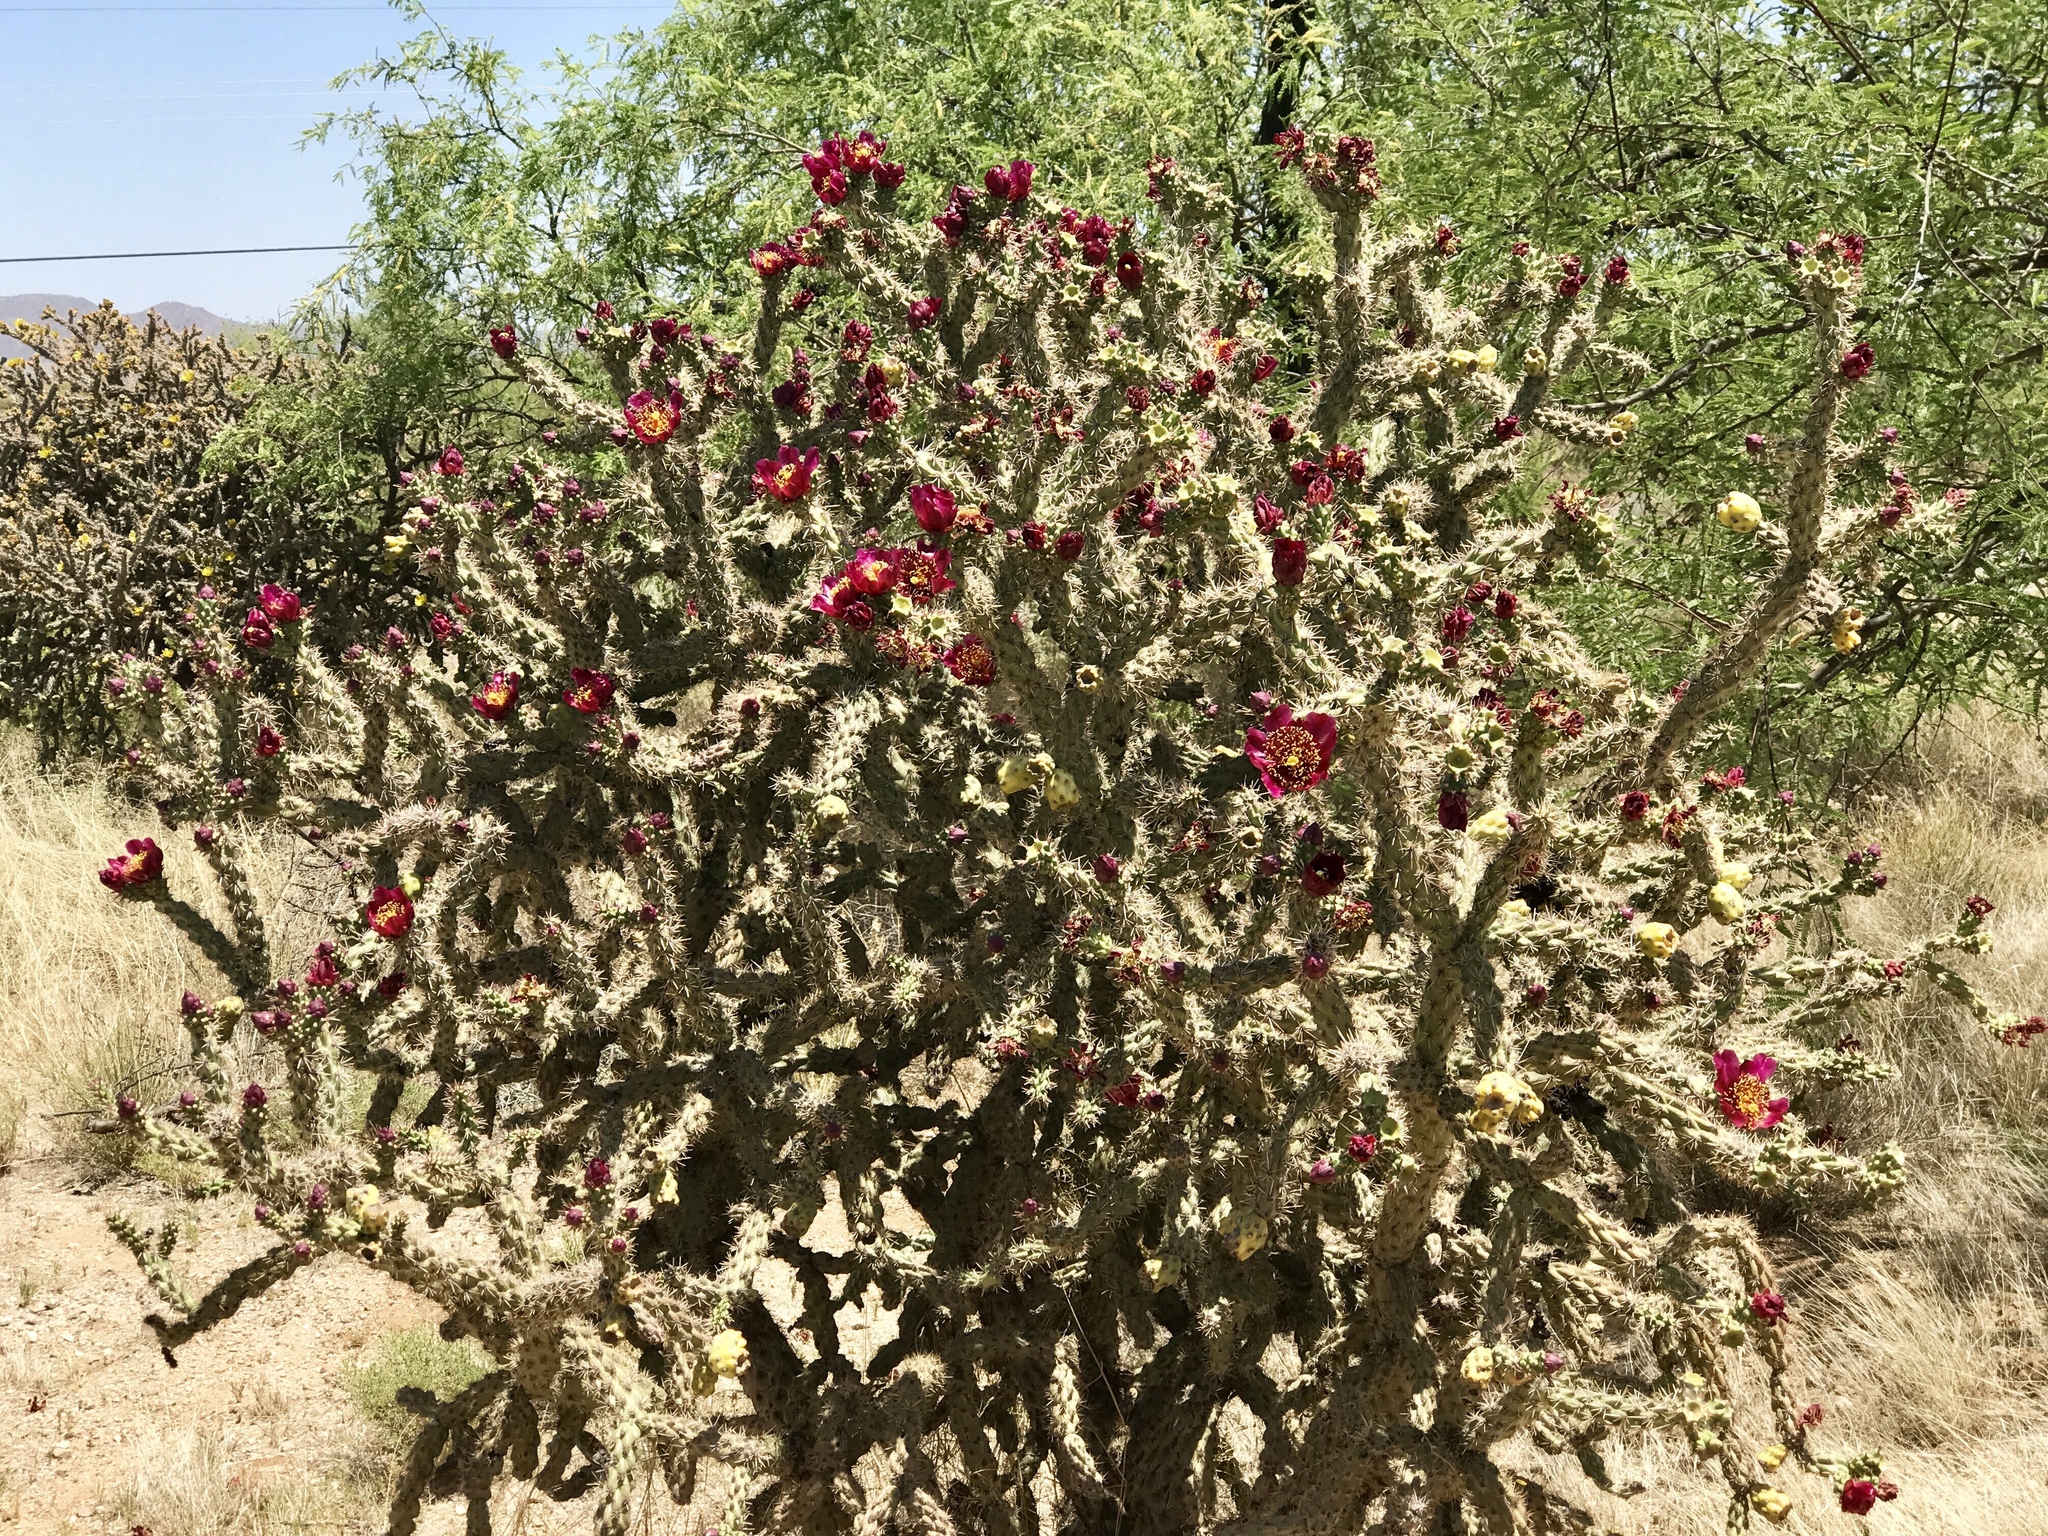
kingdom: Plantae
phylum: Tracheophyta
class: Magnoliopsida
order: Caryophyllales
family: Cactaceae
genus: Cylindropuntia
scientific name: Cylindropuntia thurberi
